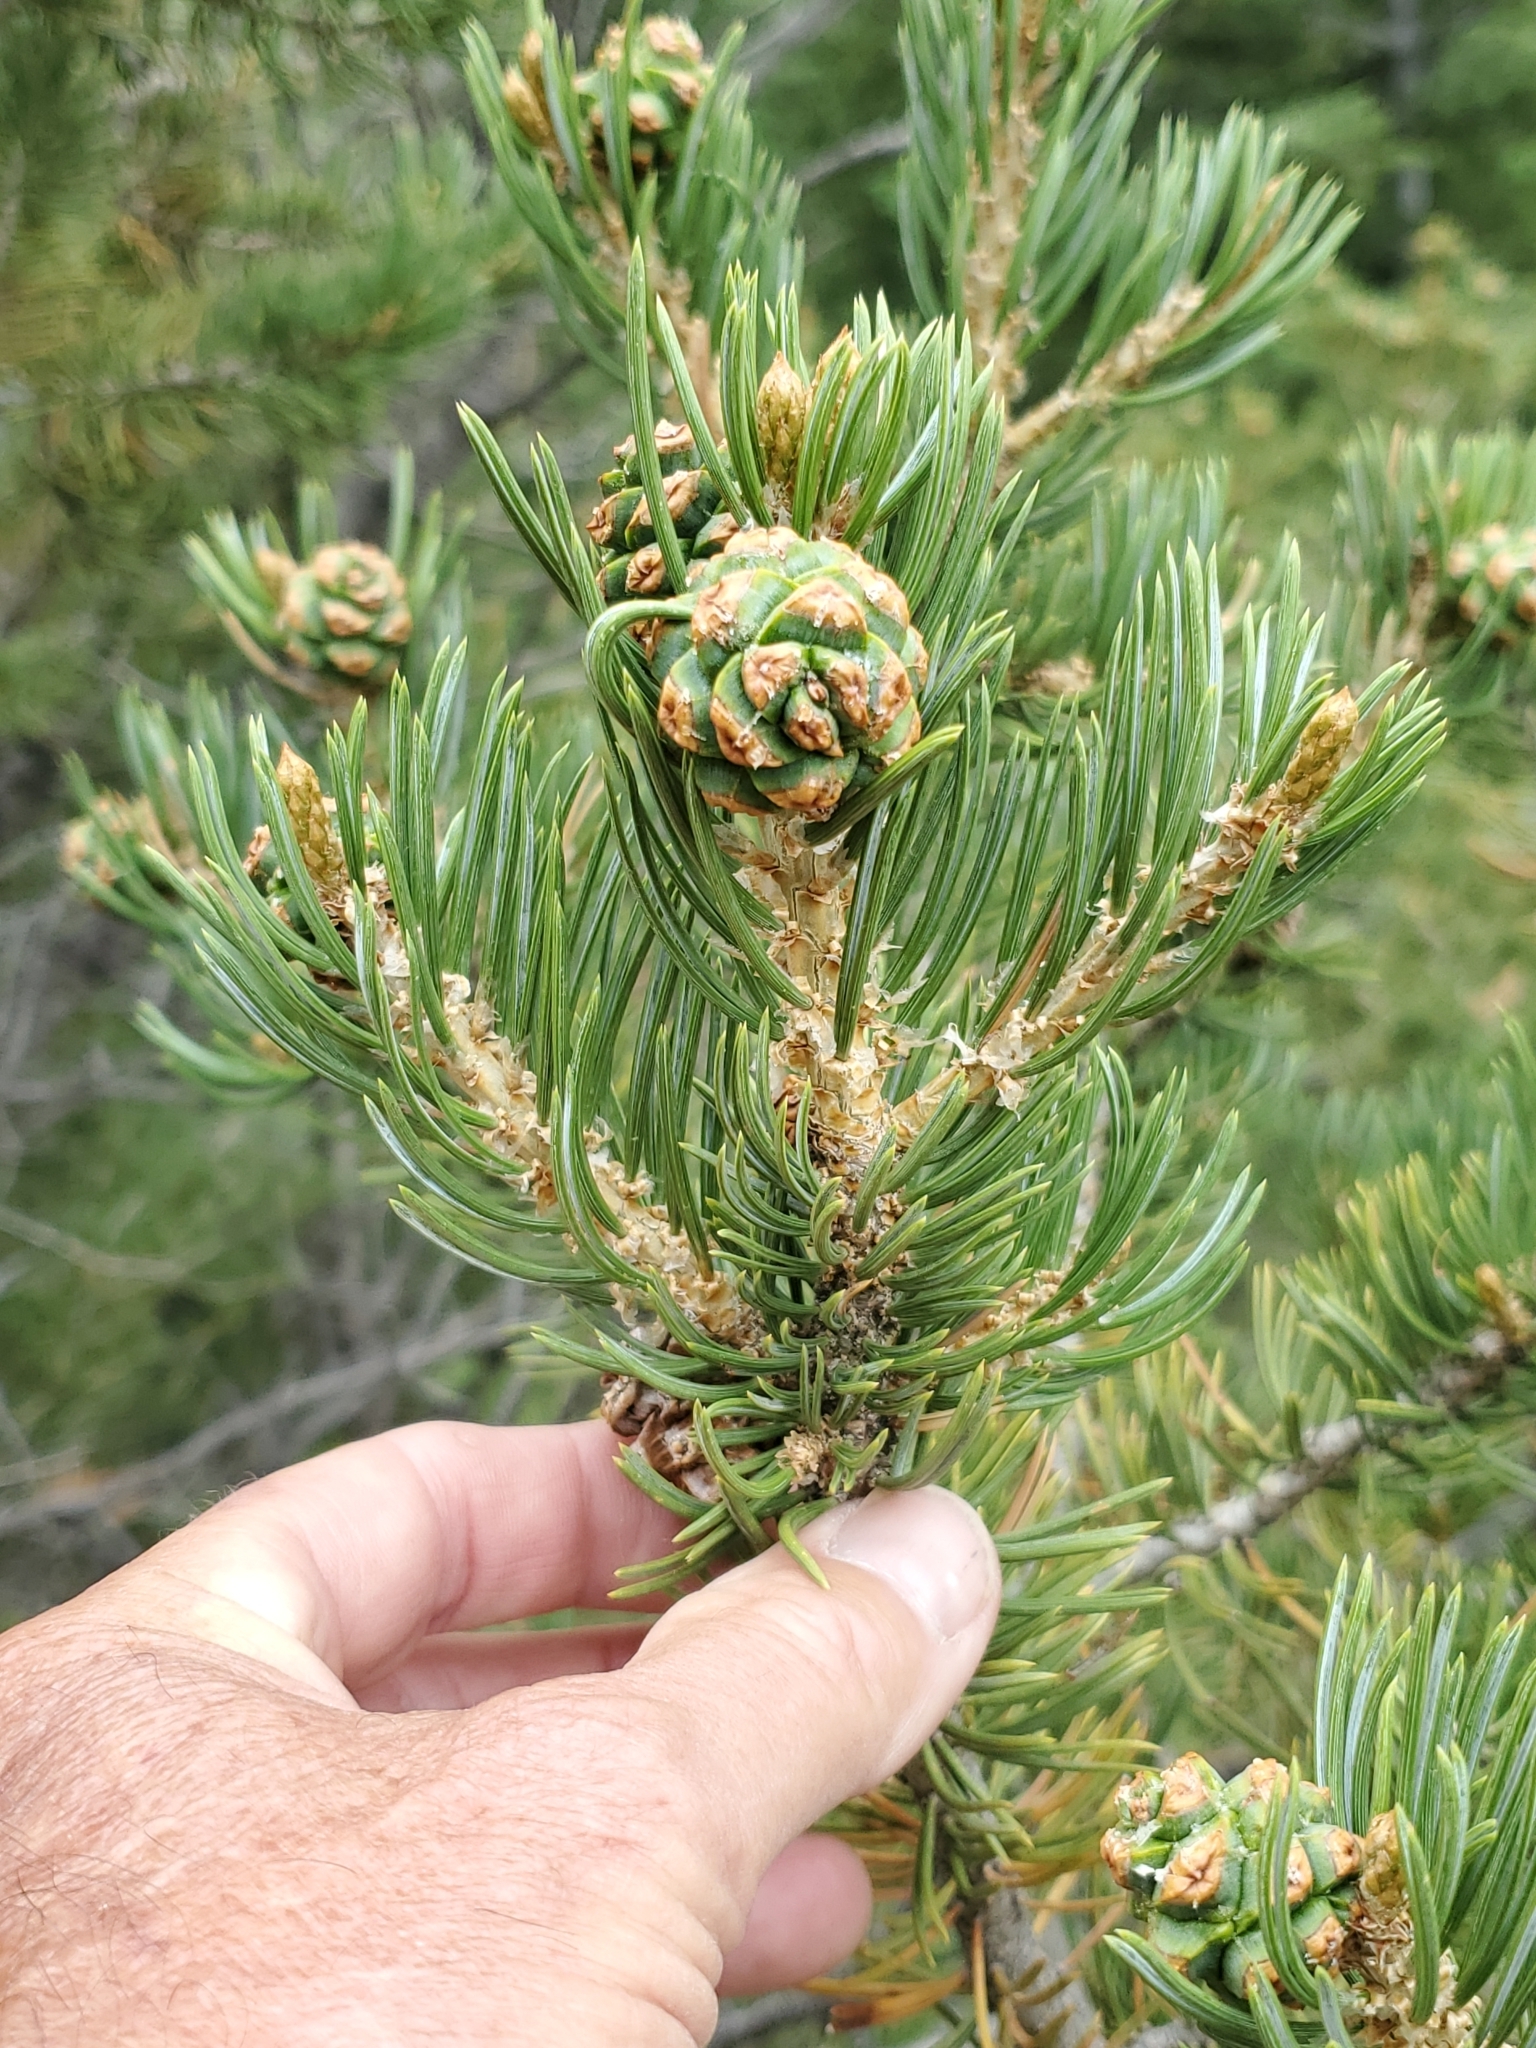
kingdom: Plantae
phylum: Tracheophyta
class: Pinopsida
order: Pinales
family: Pinaceae
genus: Pinus
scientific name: Pinus edulis
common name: Colorado pinyon
